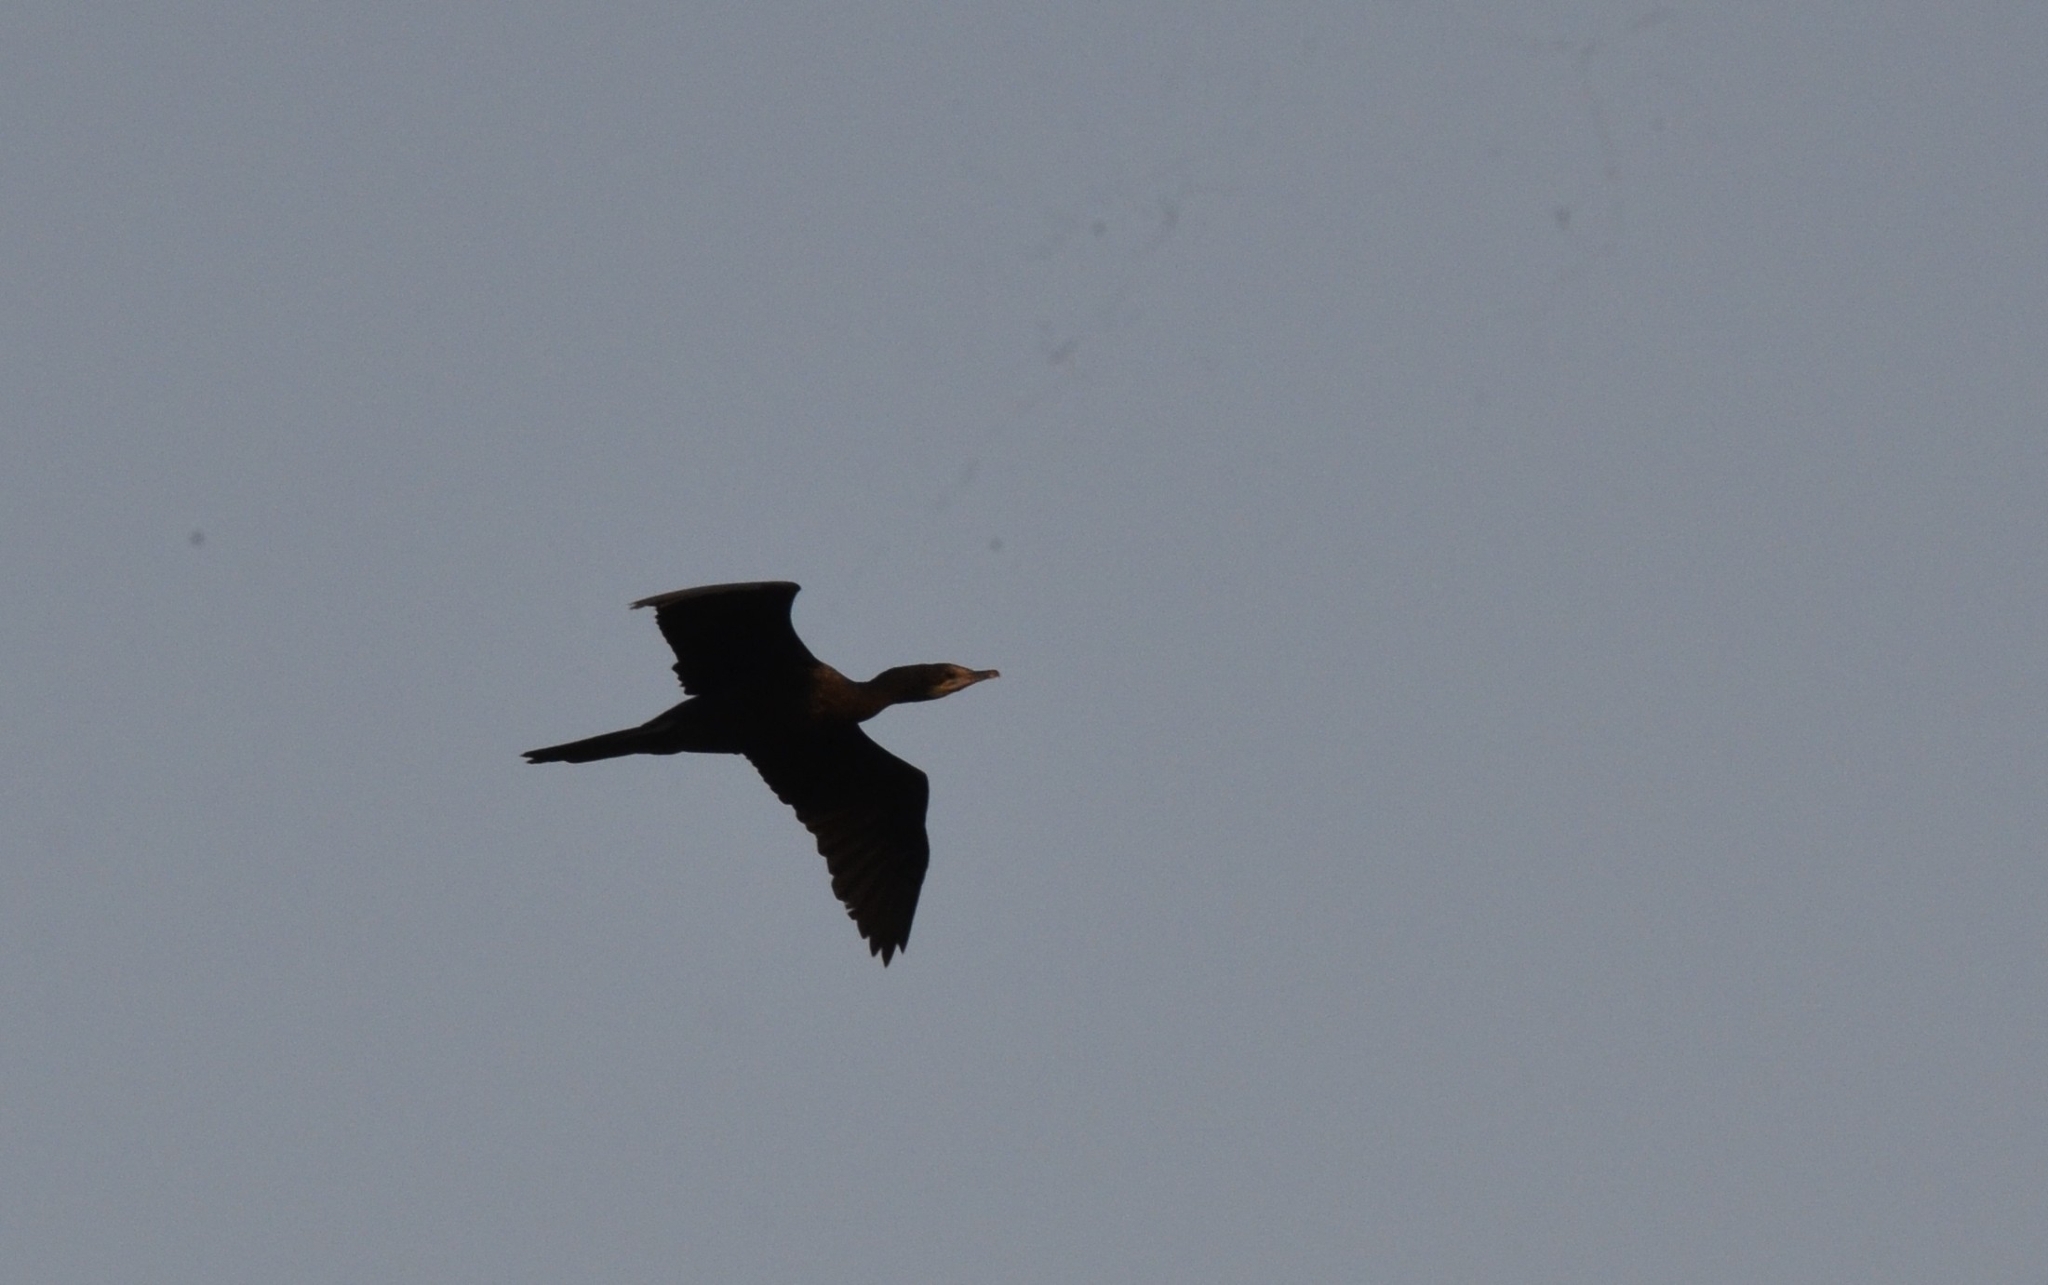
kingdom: Animalia
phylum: Chordata
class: Aves
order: Suliformes
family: Phalacrocoracidae
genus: Microcarbo
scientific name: Microcarbo niger
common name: Little cormorant
